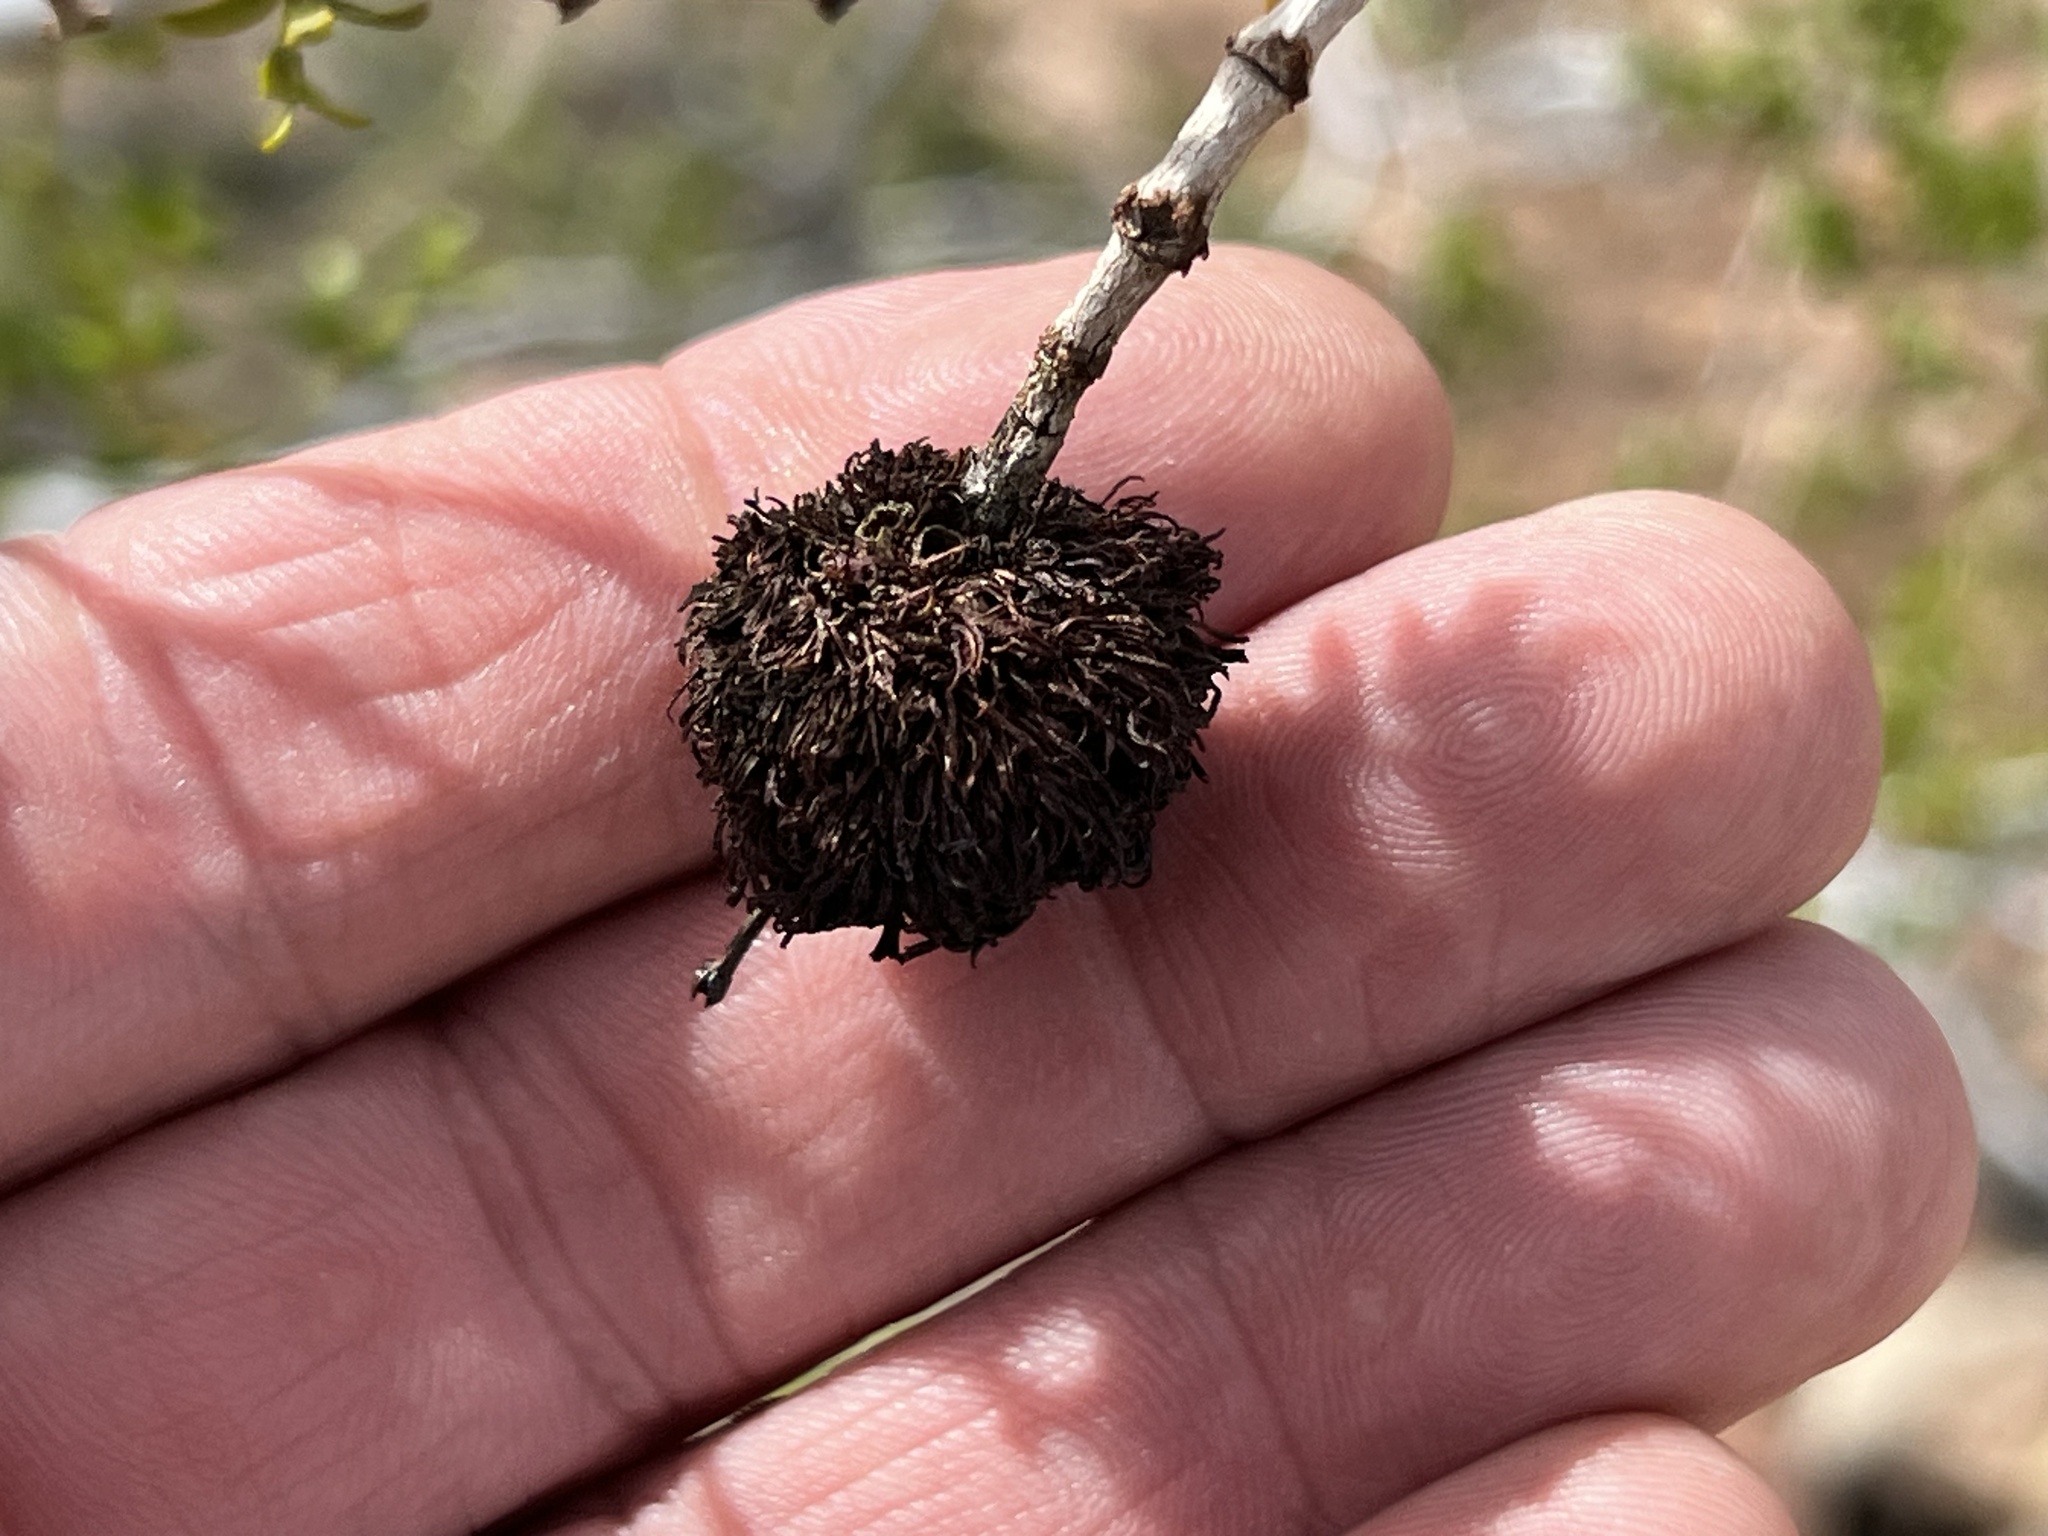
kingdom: Animalia
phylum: Arthropoda
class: Insecta
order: Diptera
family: Cecidomyiidae
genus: Asphondylia
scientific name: Asphondylia auripila
